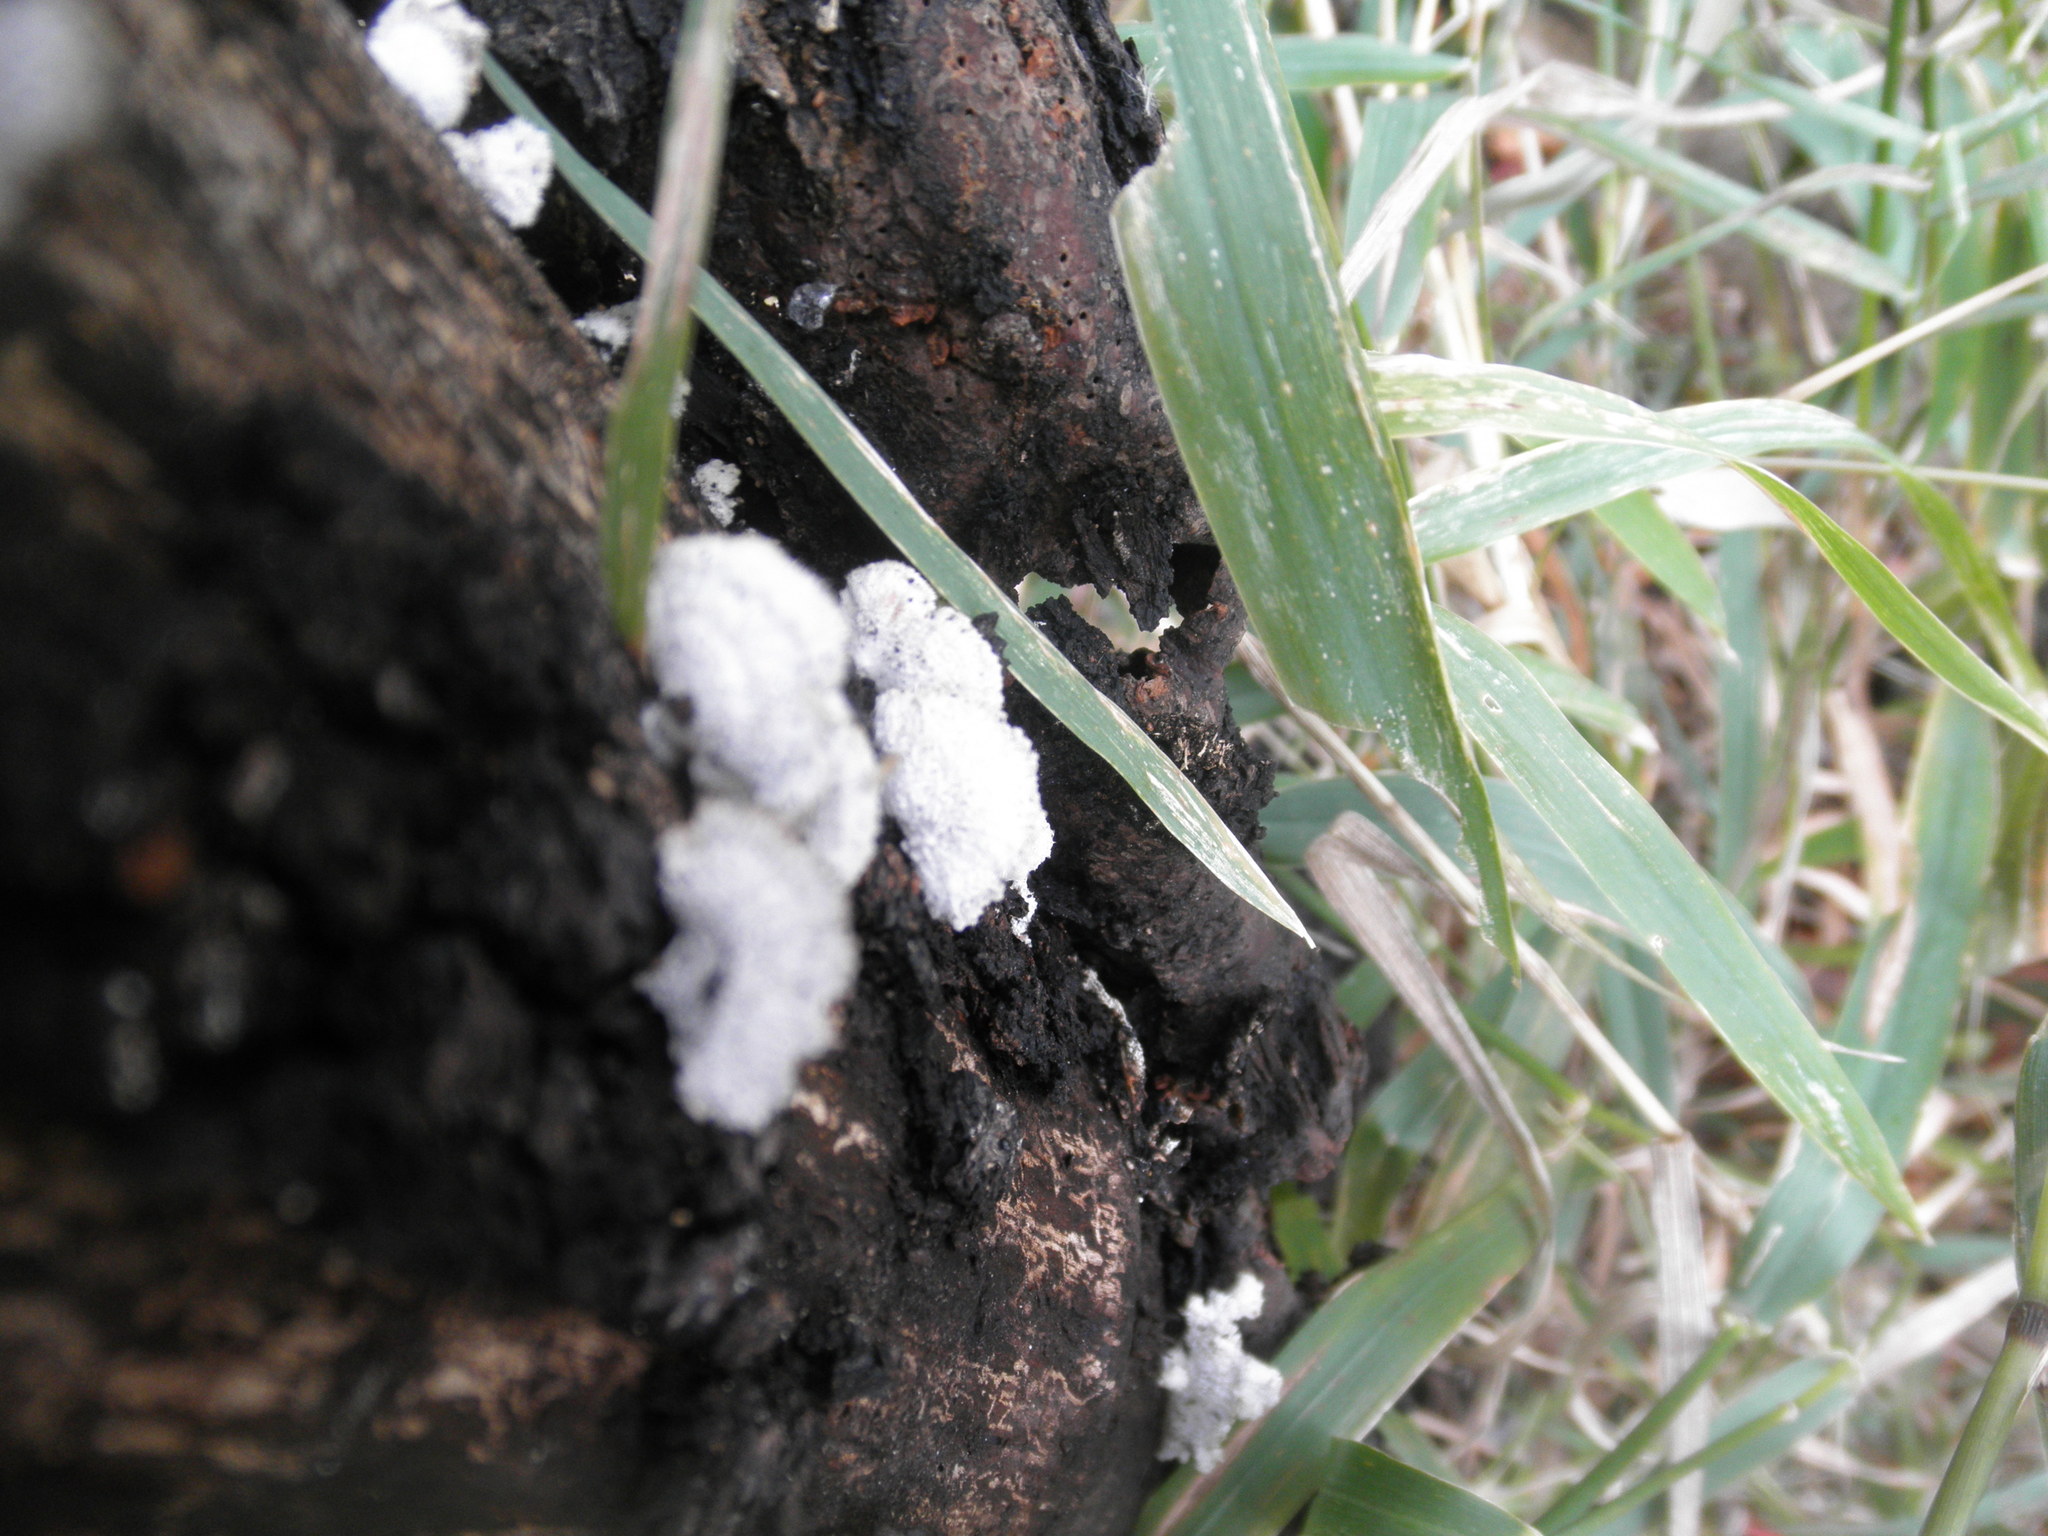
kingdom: Fungi
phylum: Basidiomycota
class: Agaricomycetes
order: Agaricales
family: Schizophyllaceae
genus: Schizophyllum
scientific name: Schizophyllum commune
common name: Common porecrust
